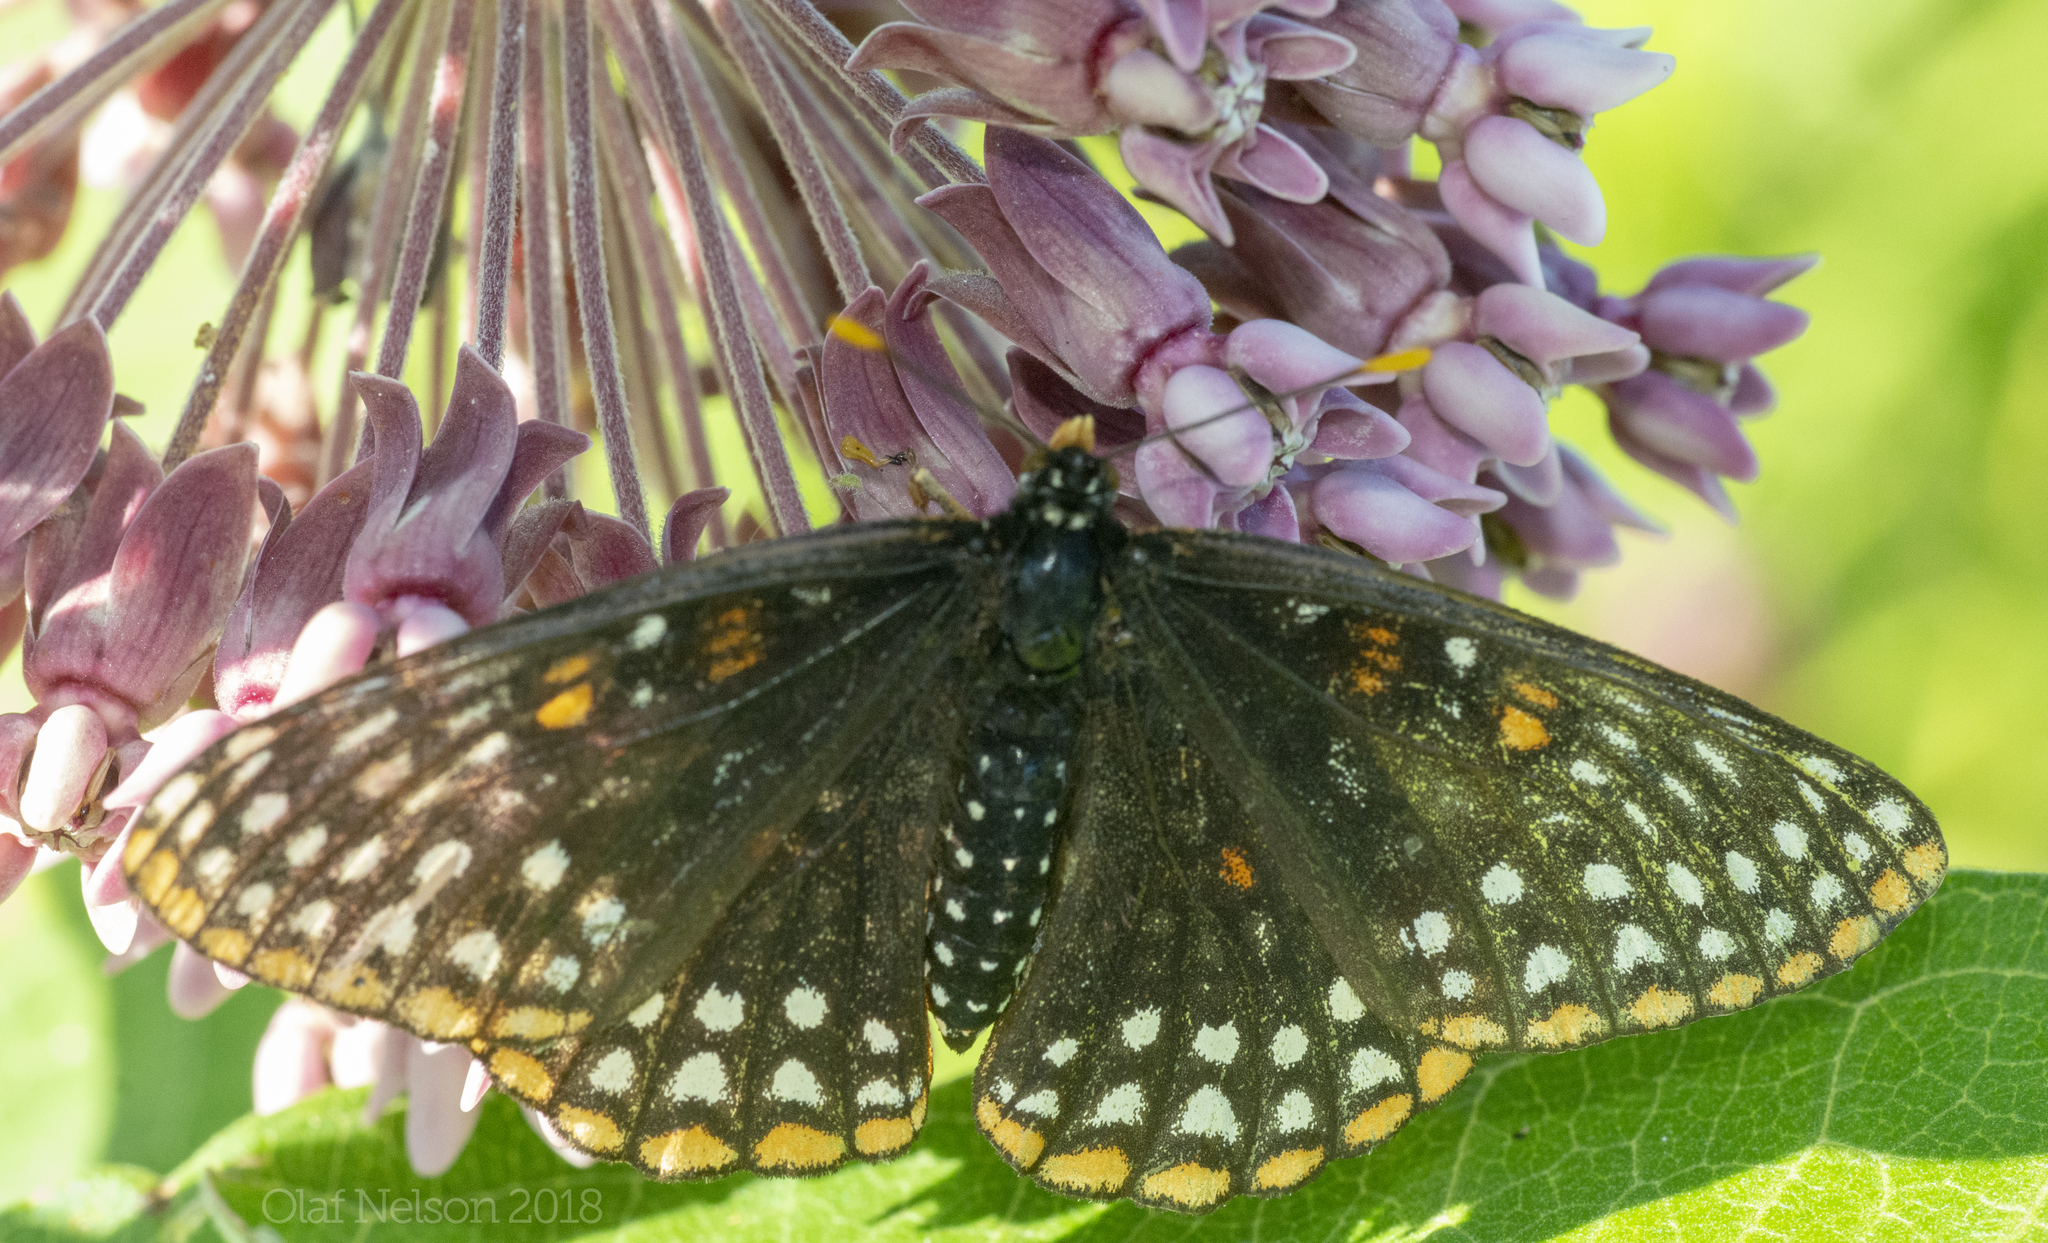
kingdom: Animalia
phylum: Arthropoda
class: Insecta
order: Lepidoptera
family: Nymphalidae
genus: Euphydryas
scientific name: Euphydryas phaeton
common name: Baltimore checkerspot
